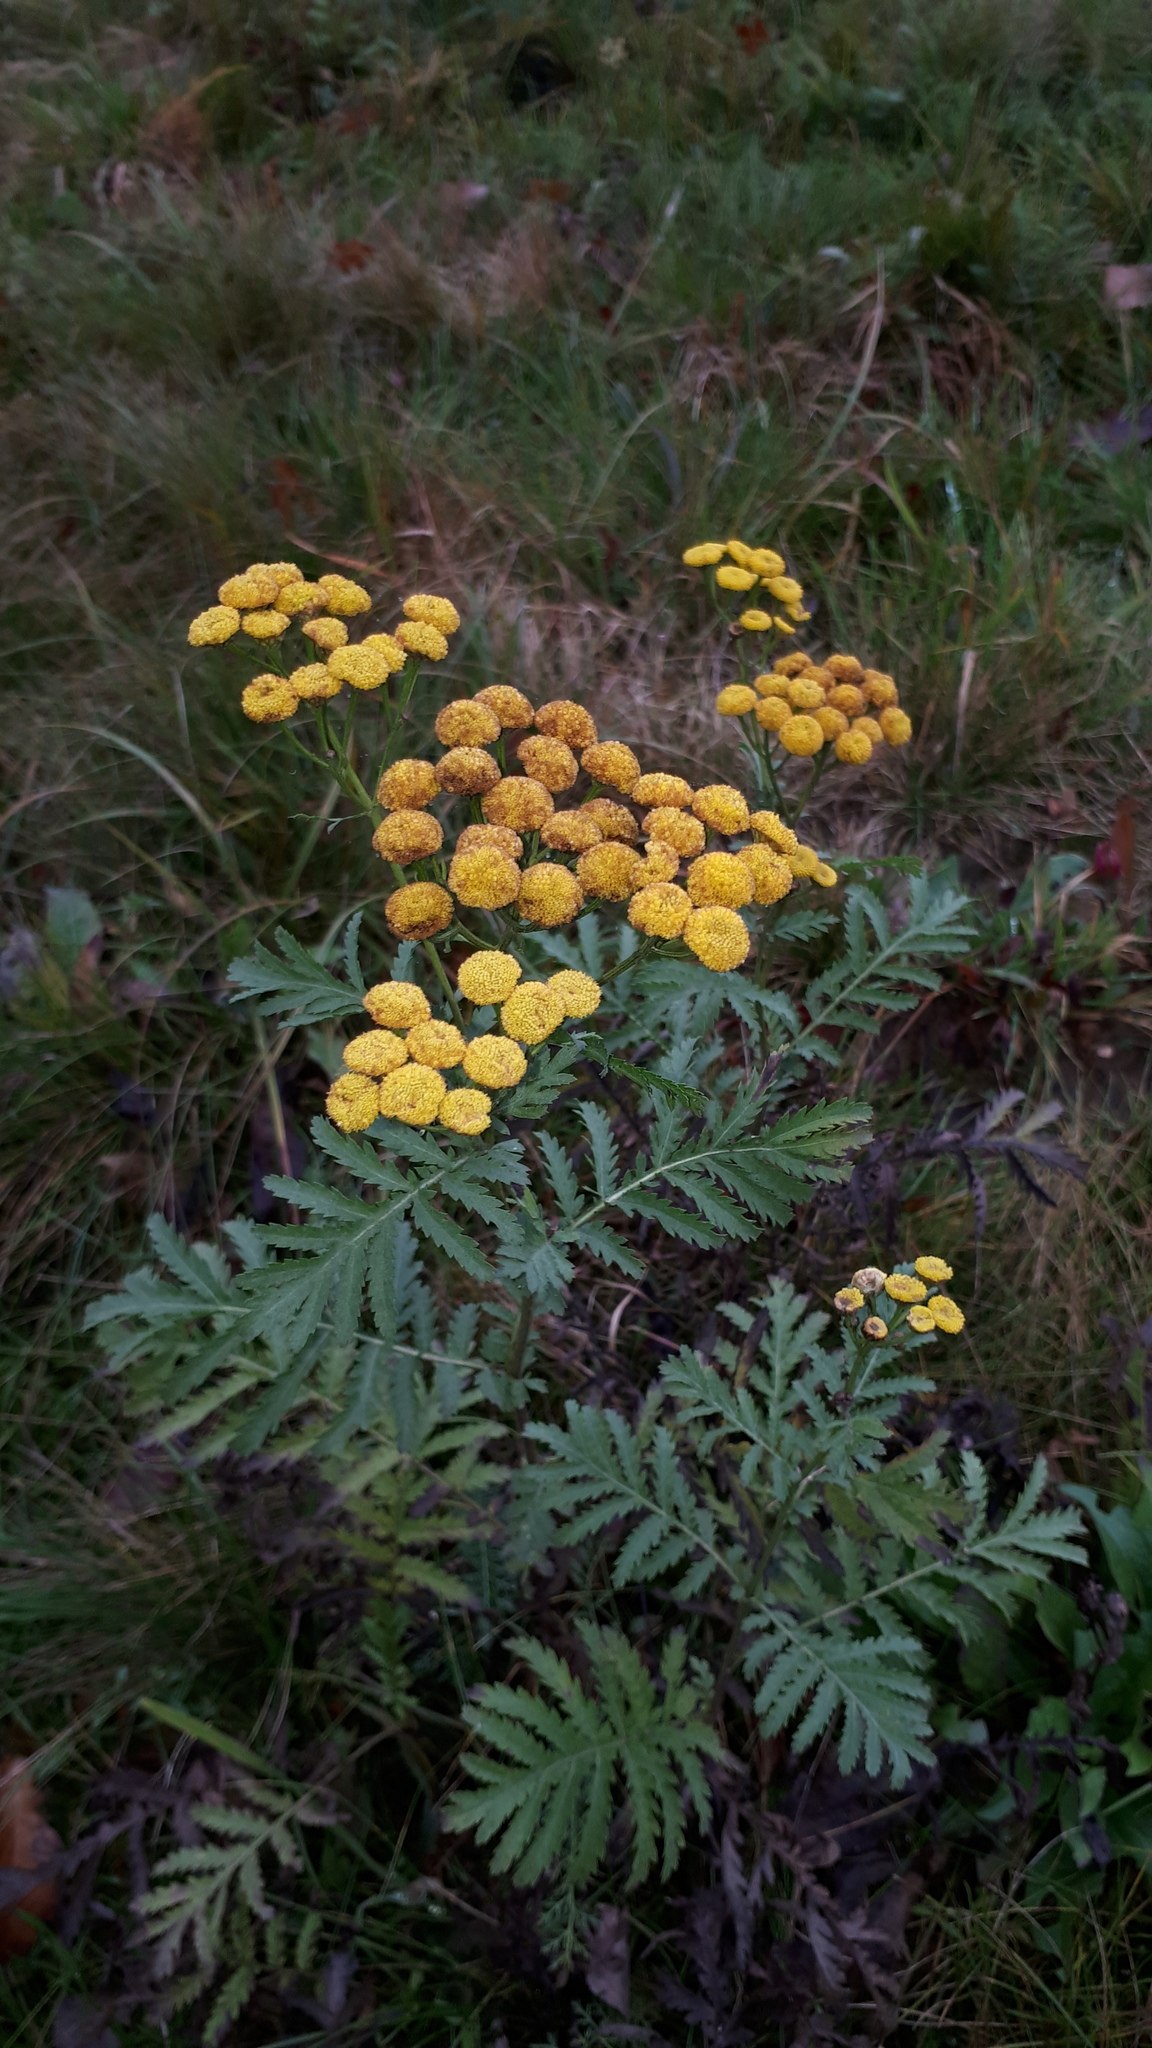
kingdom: Plantae
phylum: Tracheophyta
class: Magnoliopsida
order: Asterales
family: Asteraceae
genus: Tanacetum
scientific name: Tanacetum vulgare
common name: Common tansy
